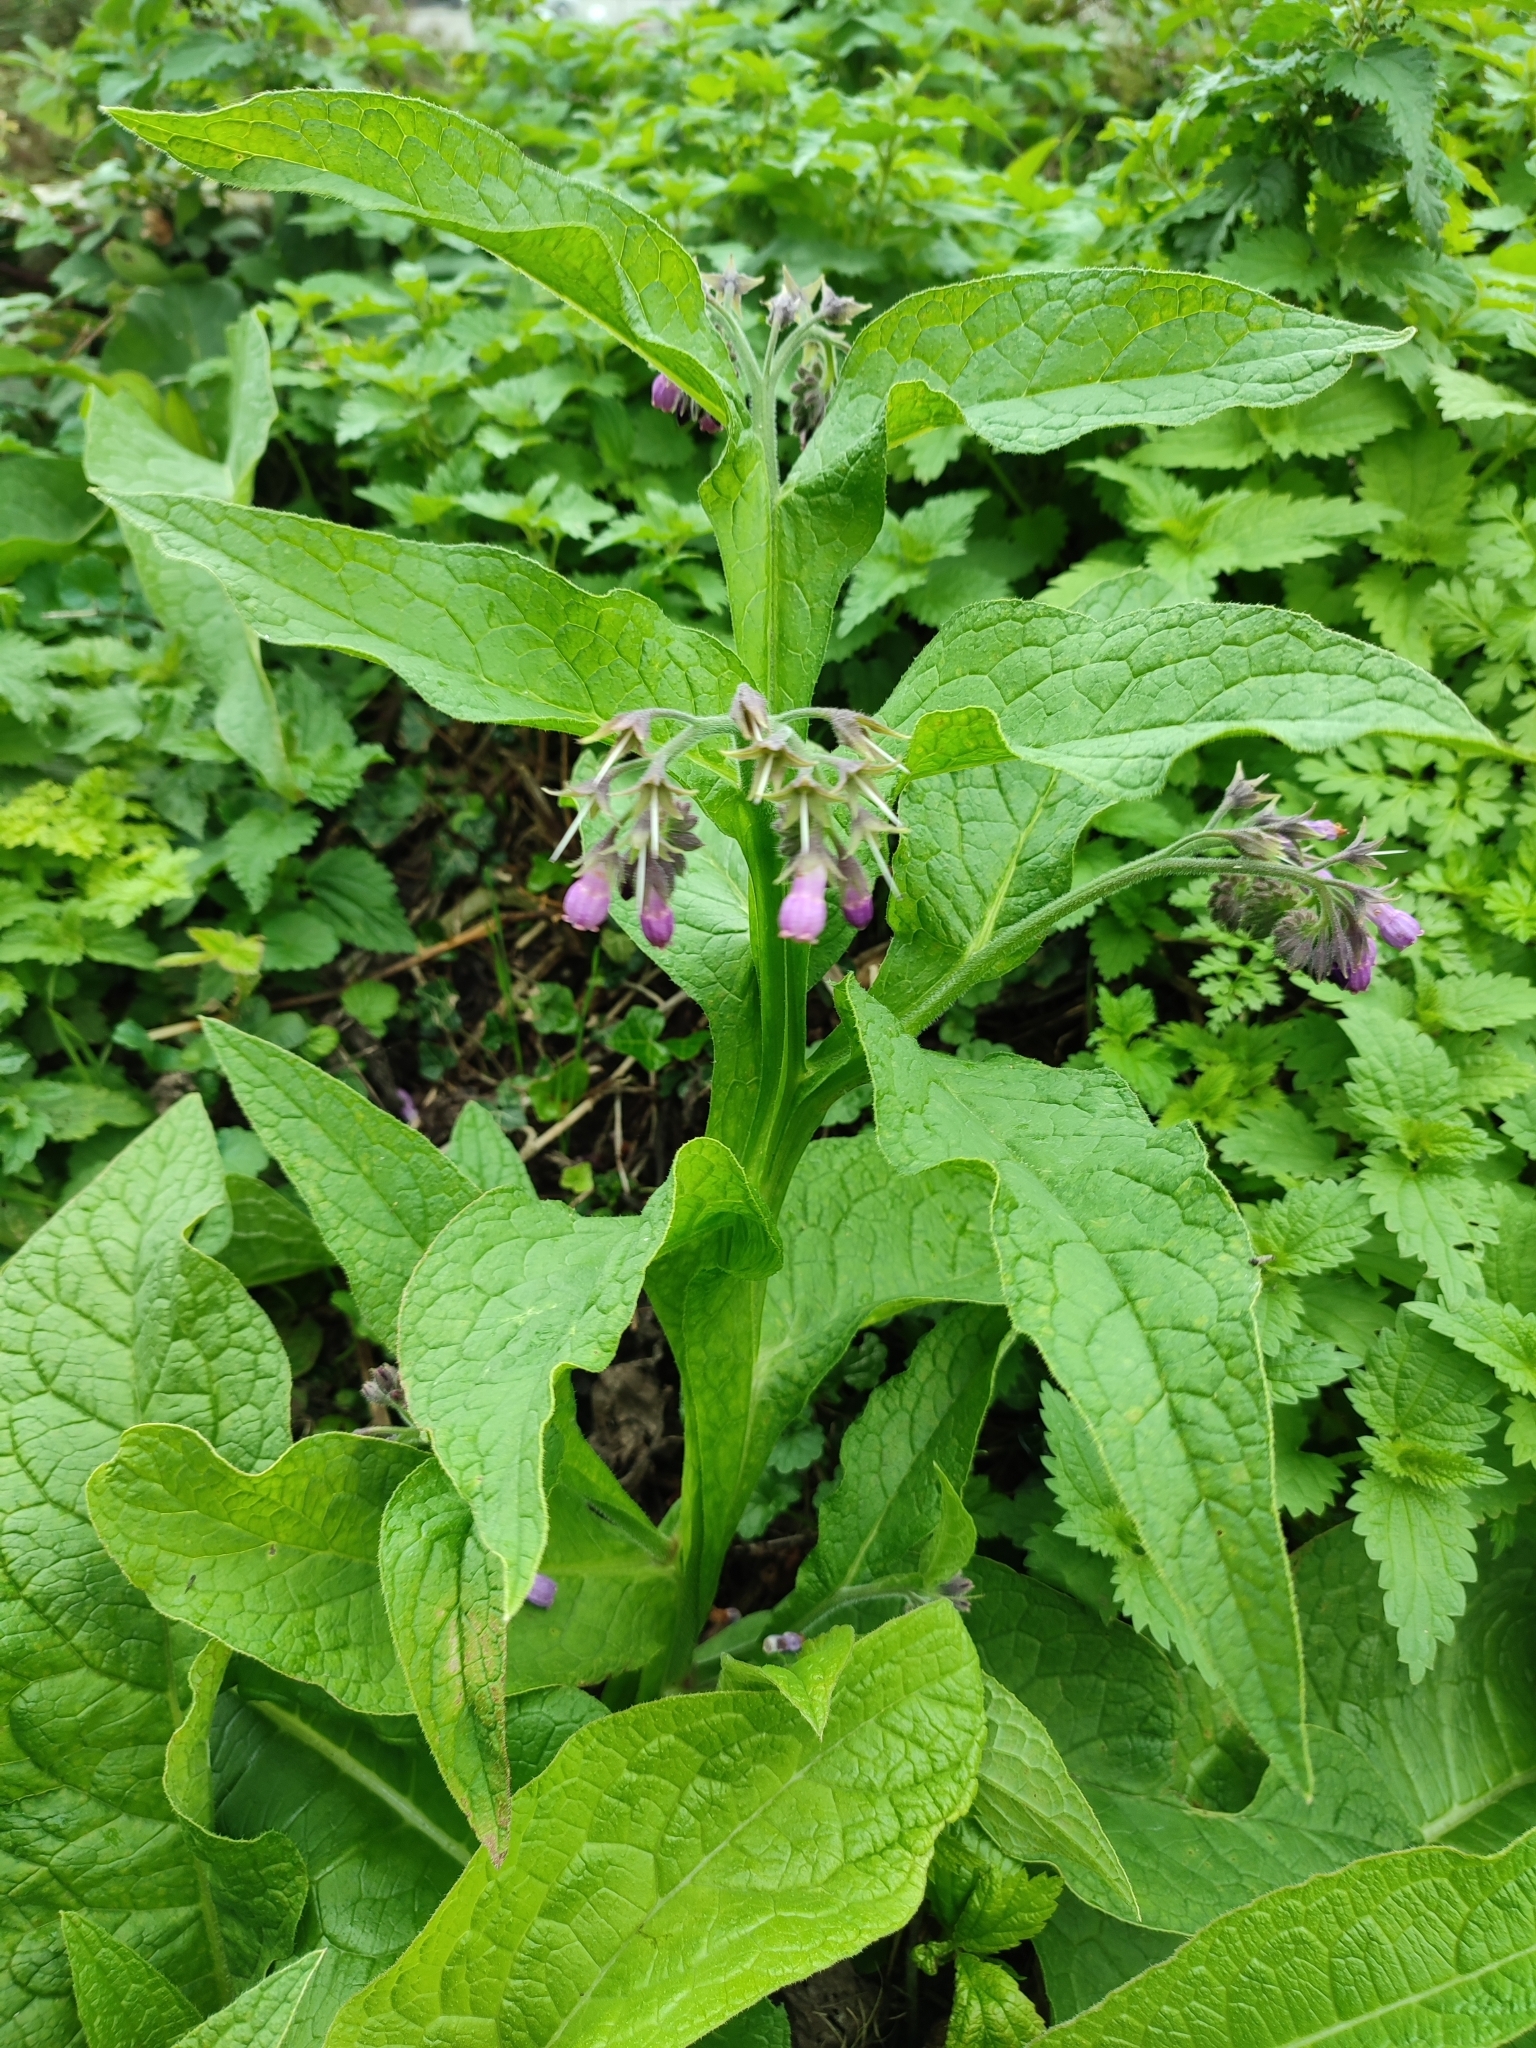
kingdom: Plantae
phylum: Tracheophyta
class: Magnoliopsida
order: Boraginales
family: Boraginaceae
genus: Symphytum
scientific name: Symphytum officinale
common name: Common comfrey
